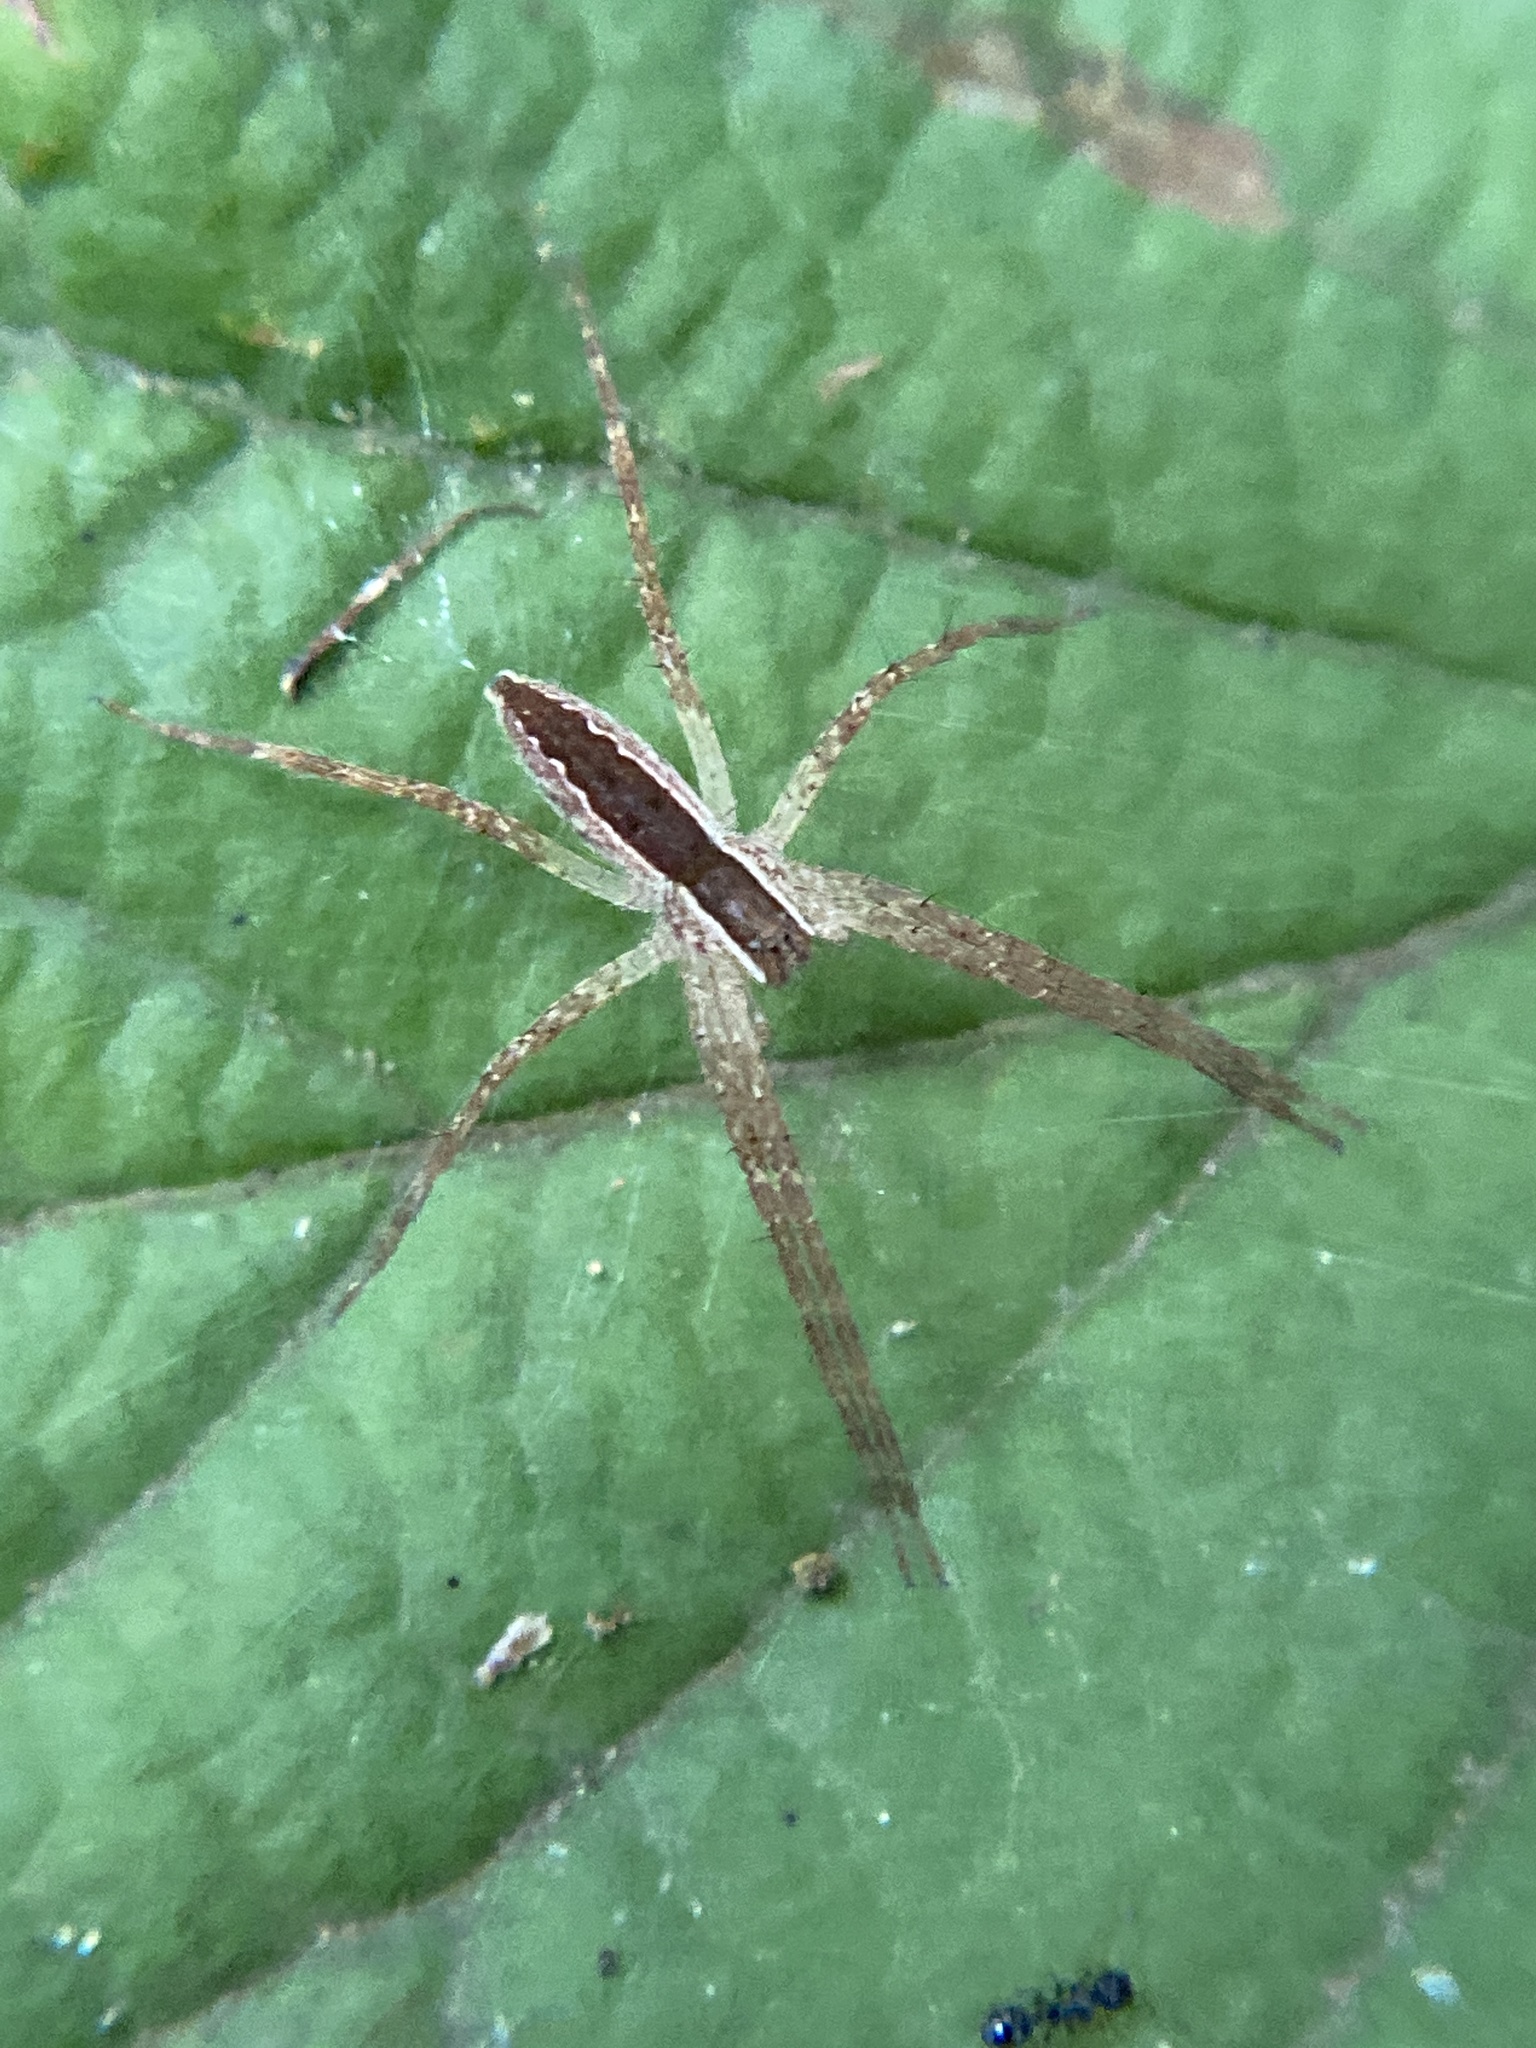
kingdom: Animalia
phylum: Arthropoda
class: Arachnida
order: Araneae
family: Pisauridae
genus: Pisaurina
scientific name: Pisaurina mira
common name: American nursery web spider
